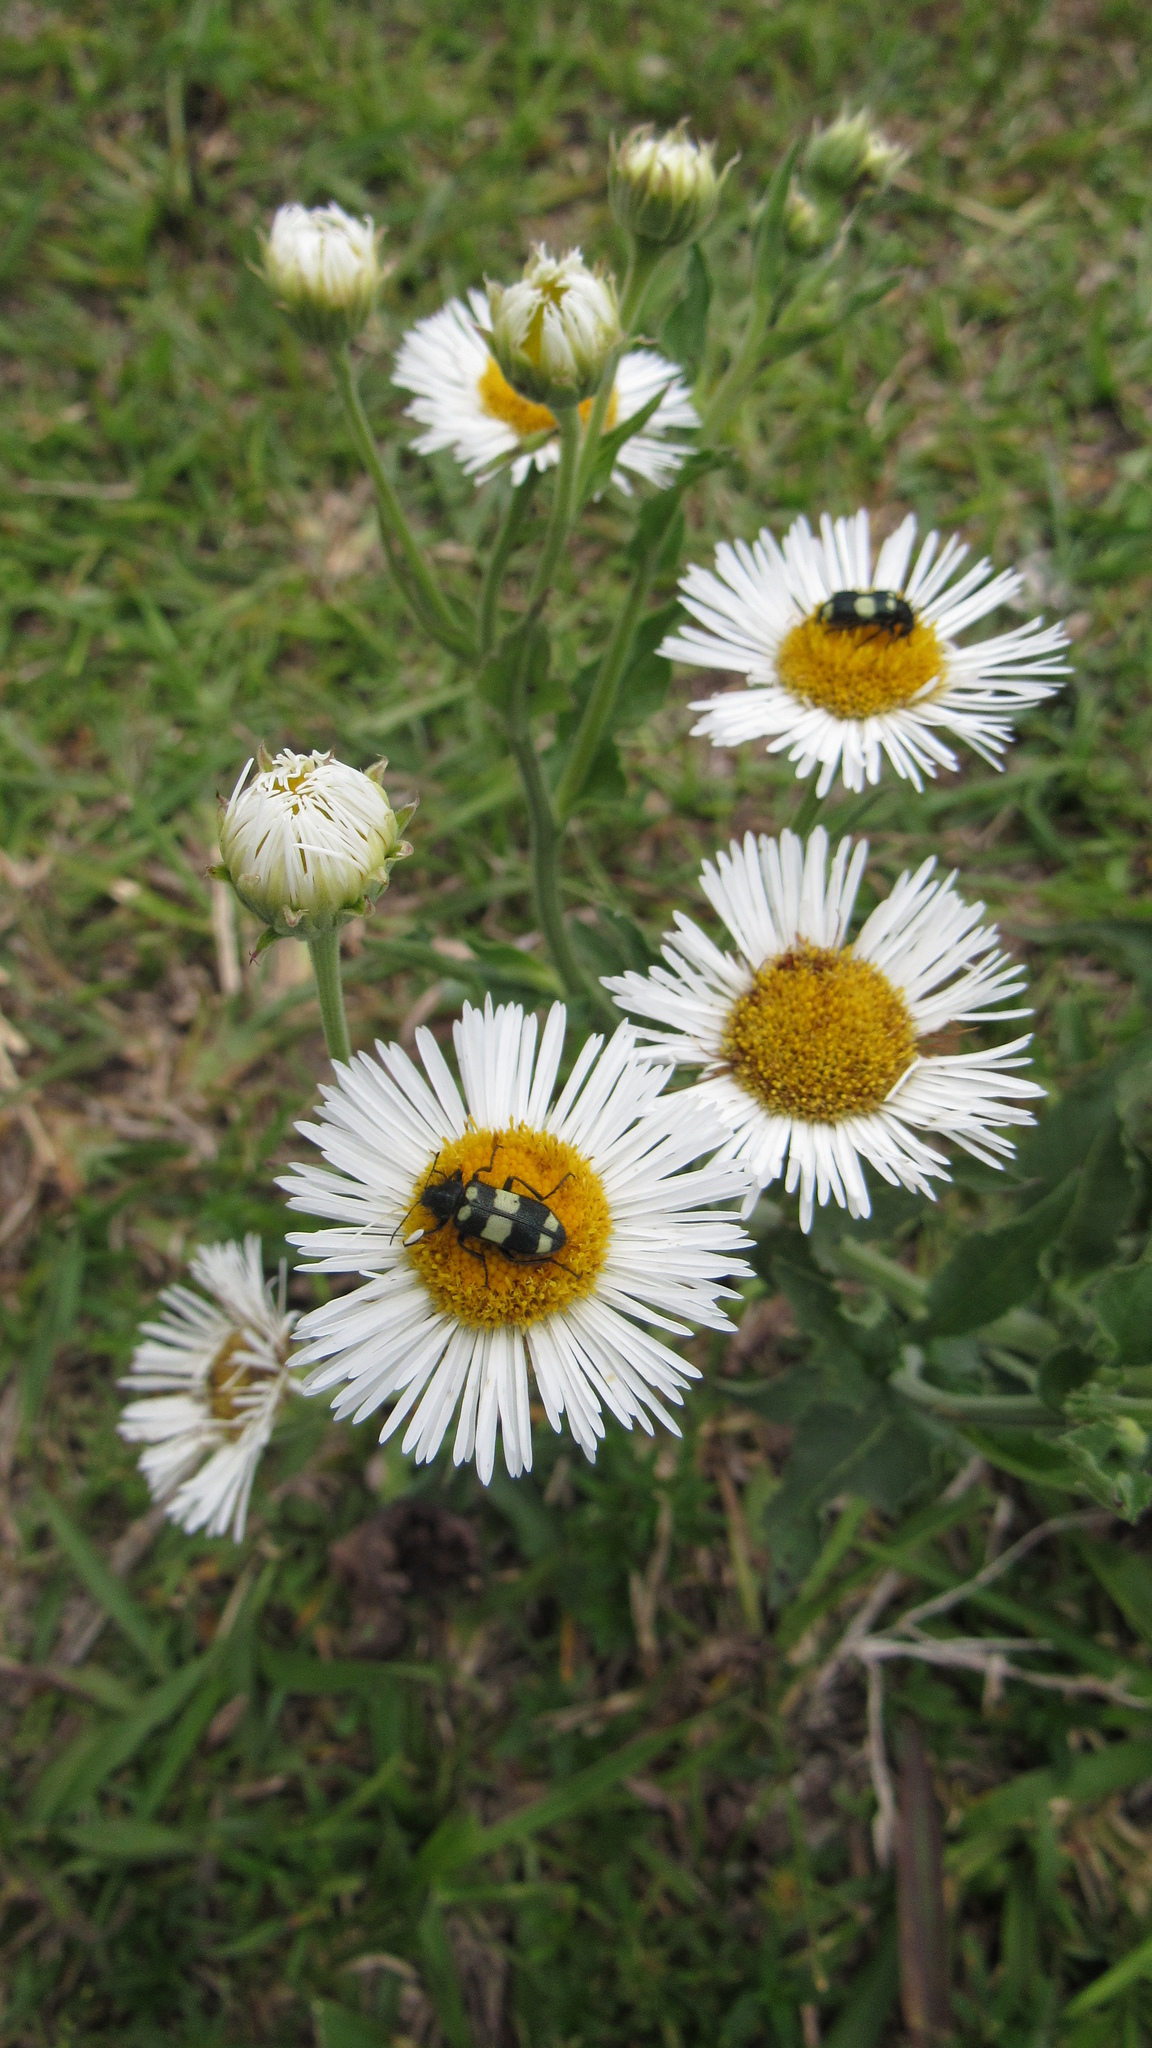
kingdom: Animalia
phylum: Arthropoda
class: Insecta
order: Coleoptera
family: Melyridae
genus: Astylus
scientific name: Astylus
